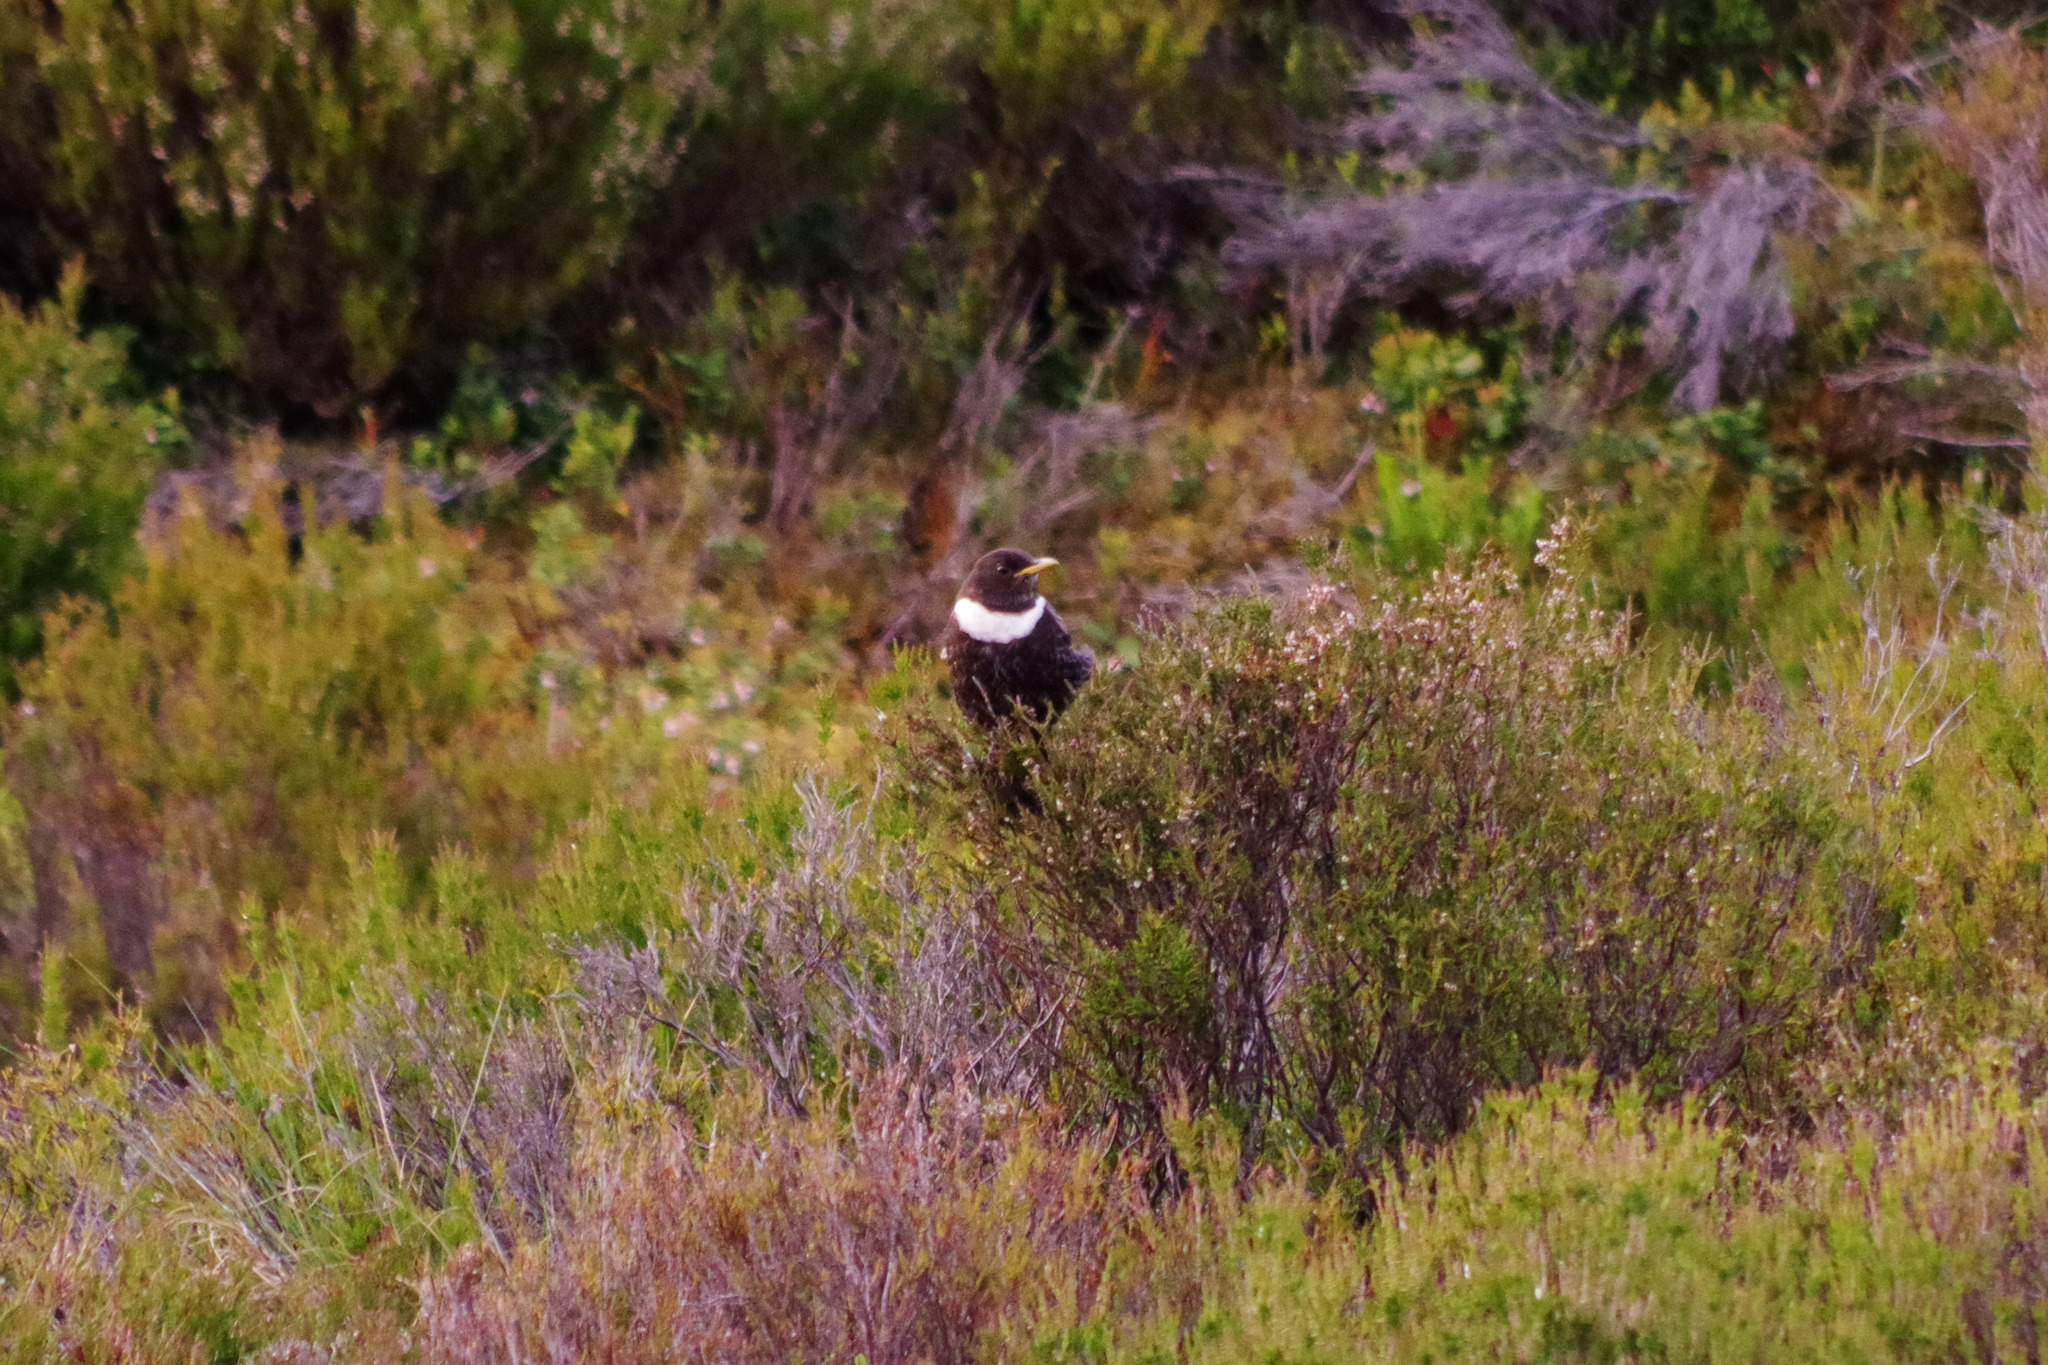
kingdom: Animalia
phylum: Chordata
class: Aves
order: Passeriformes
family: Turdidae
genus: Turdus
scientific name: Turdus torquatus
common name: Ring ouzel
